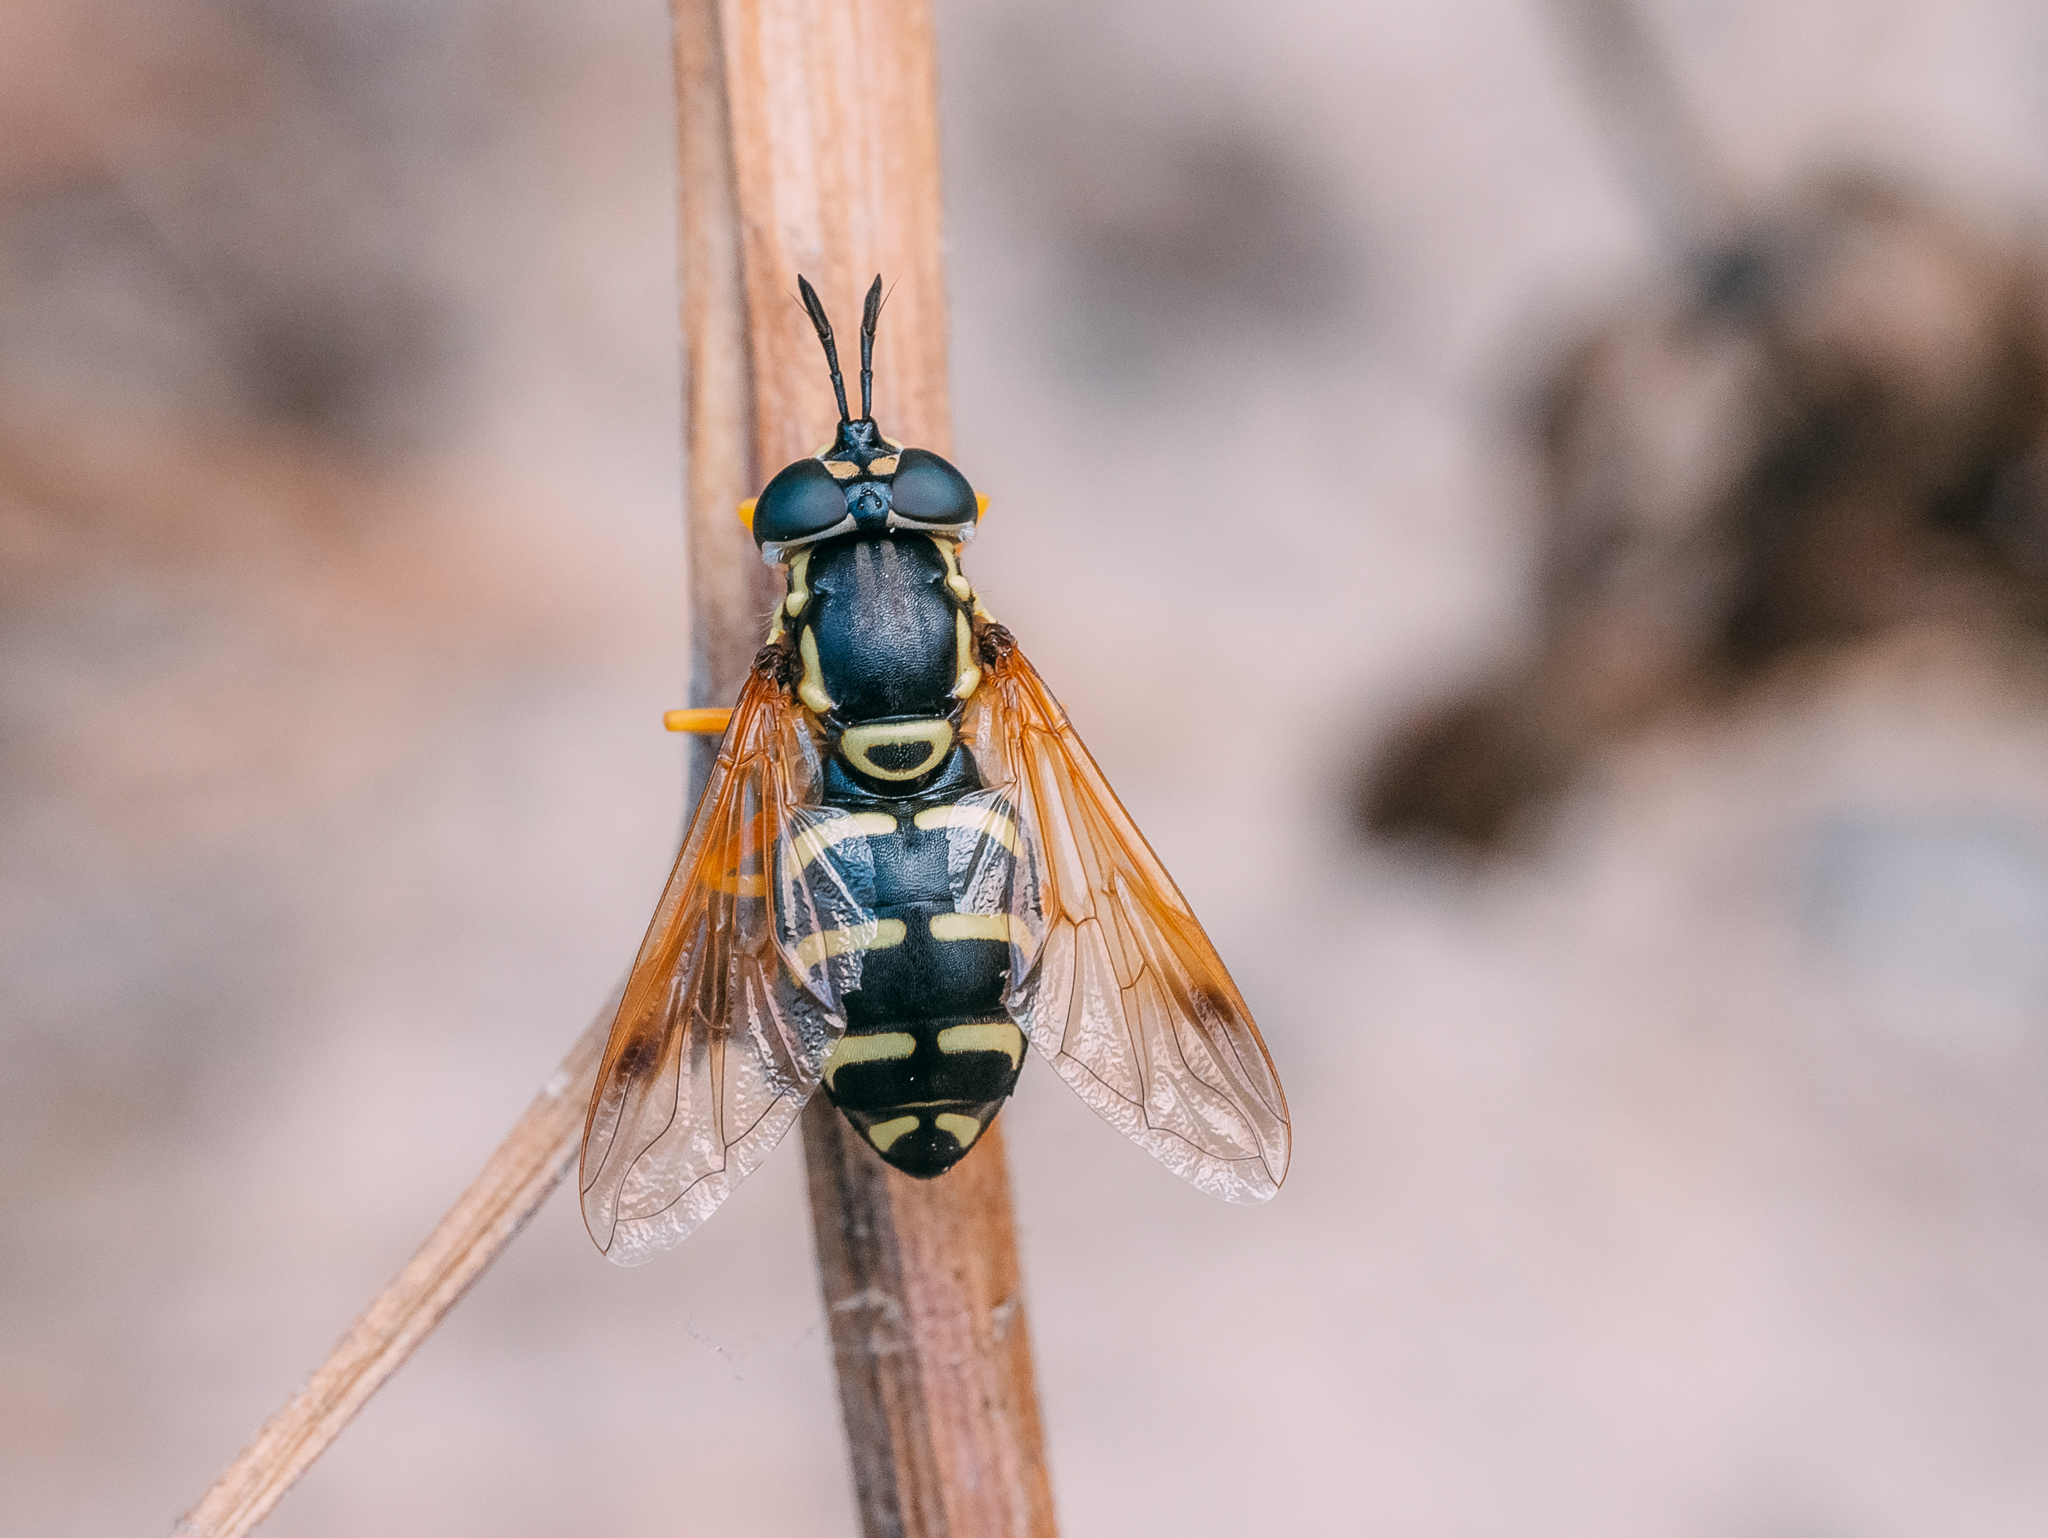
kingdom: Animalia
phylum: Arthropoda
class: Insecta
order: Diptera
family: Syrphidae
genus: Chrysotoxum
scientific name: Chrysotoxum festivum
